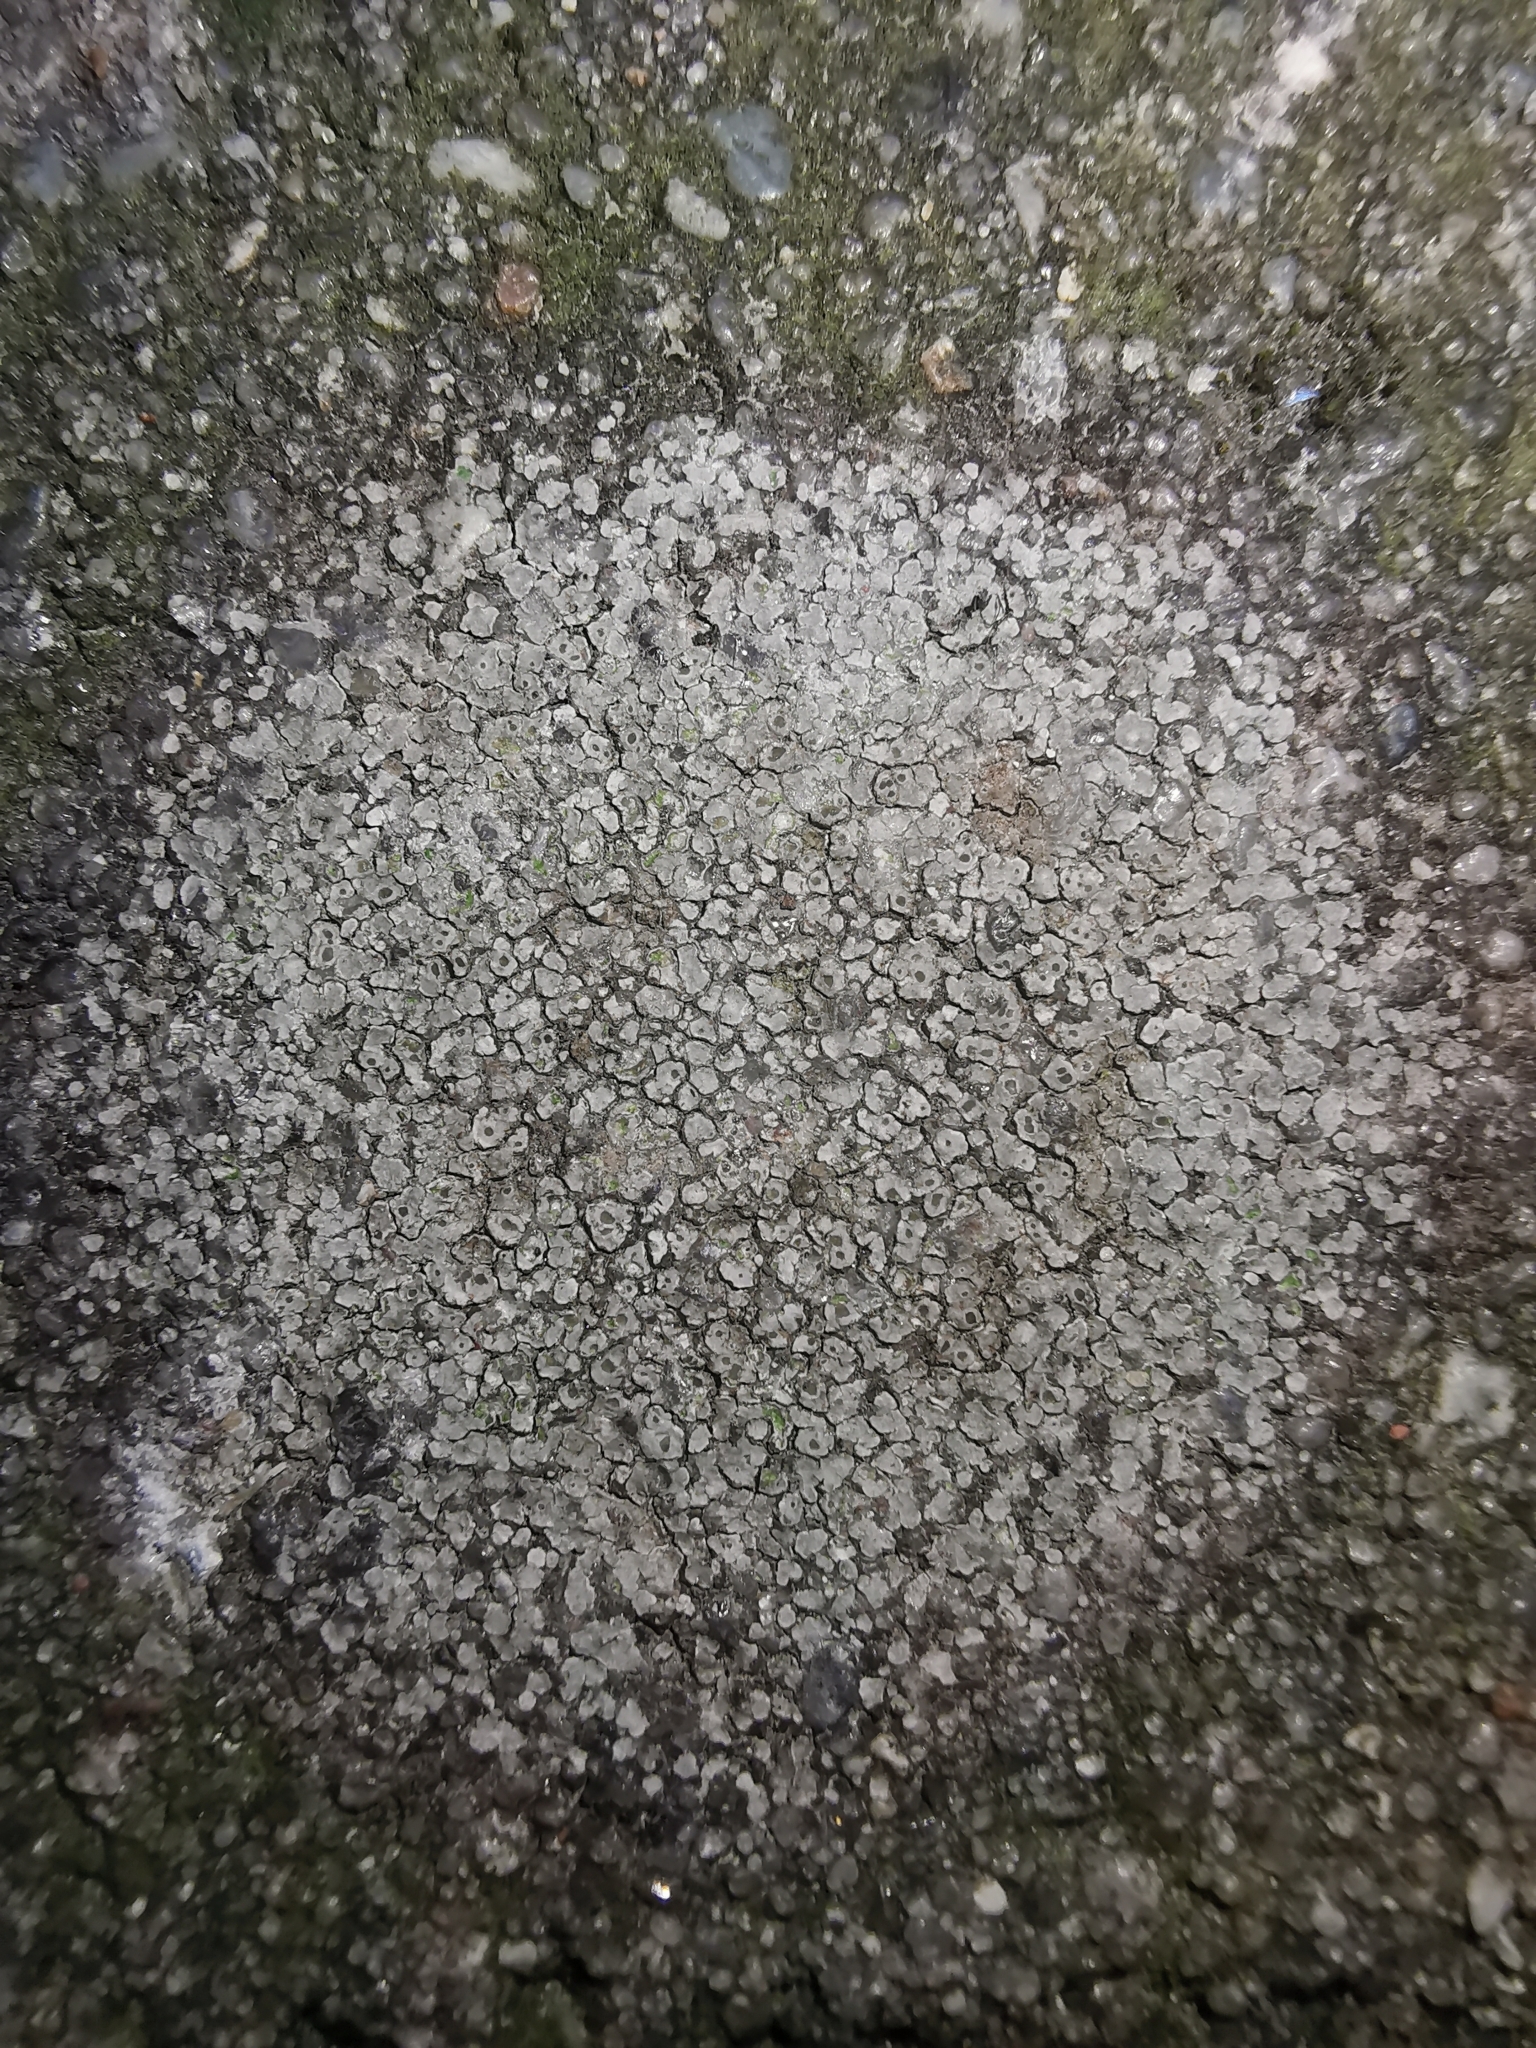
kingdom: Fungi
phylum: Ascomycota
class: Lecanoromycetes
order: Pertusariales
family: Megasporaceae
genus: Circinaria
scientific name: Circinaria contorta
